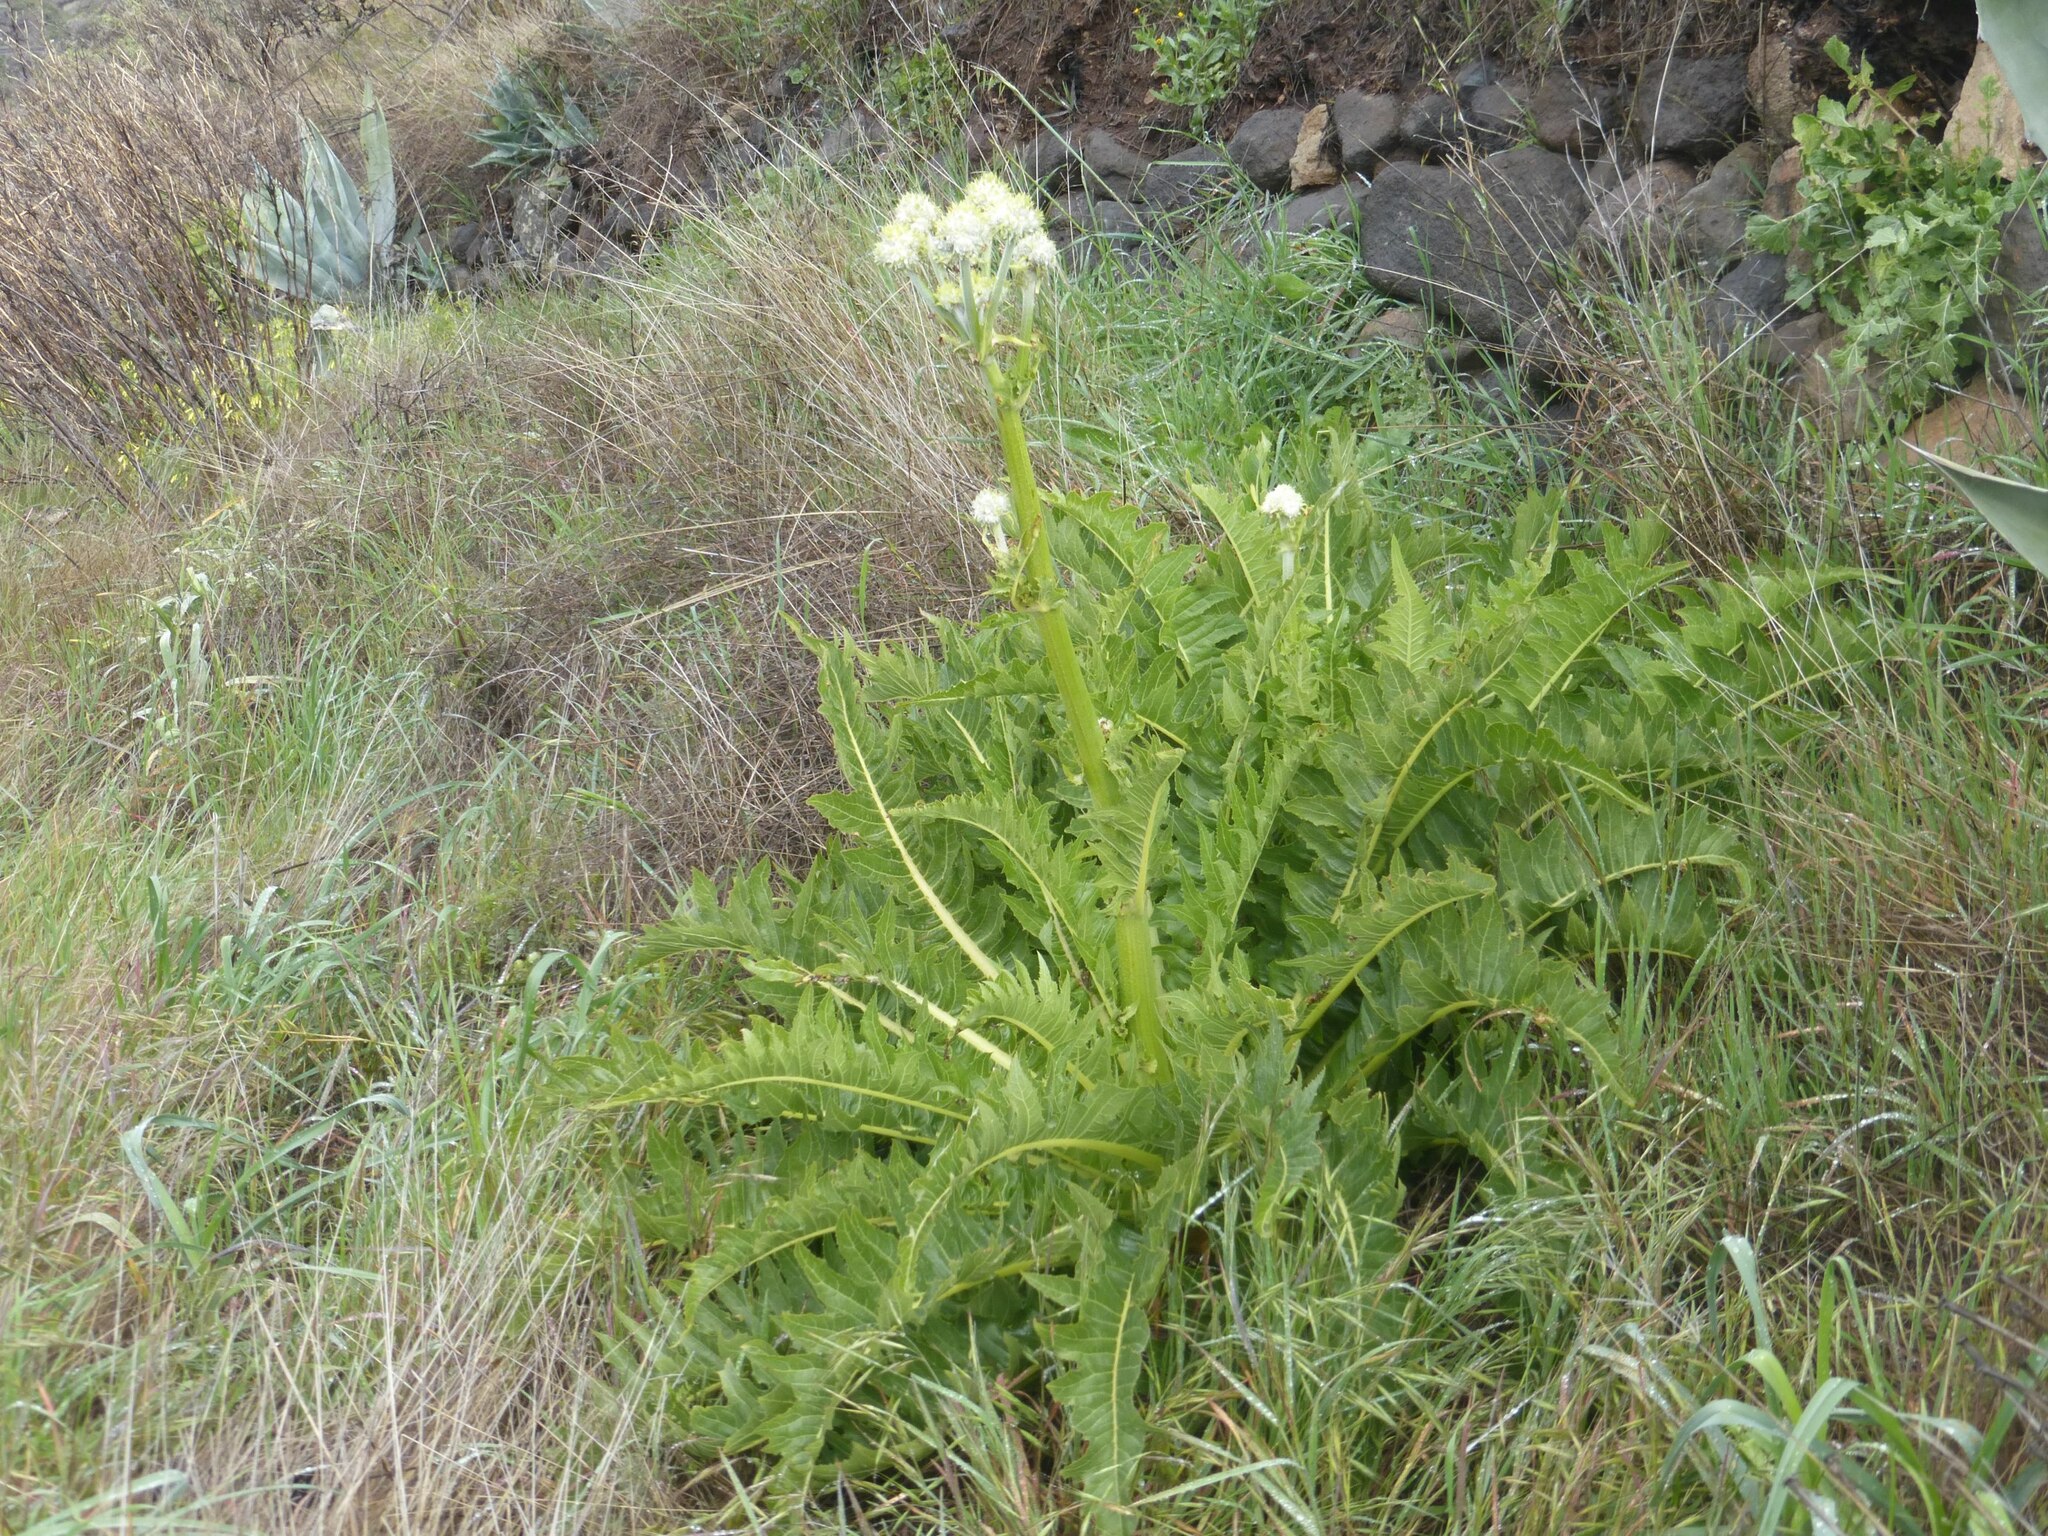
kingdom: Plantae
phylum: Tracheophyta
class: Magnoliopsida
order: Asterales
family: Asteraceae
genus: Sonchus
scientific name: Sonchus acaulis
